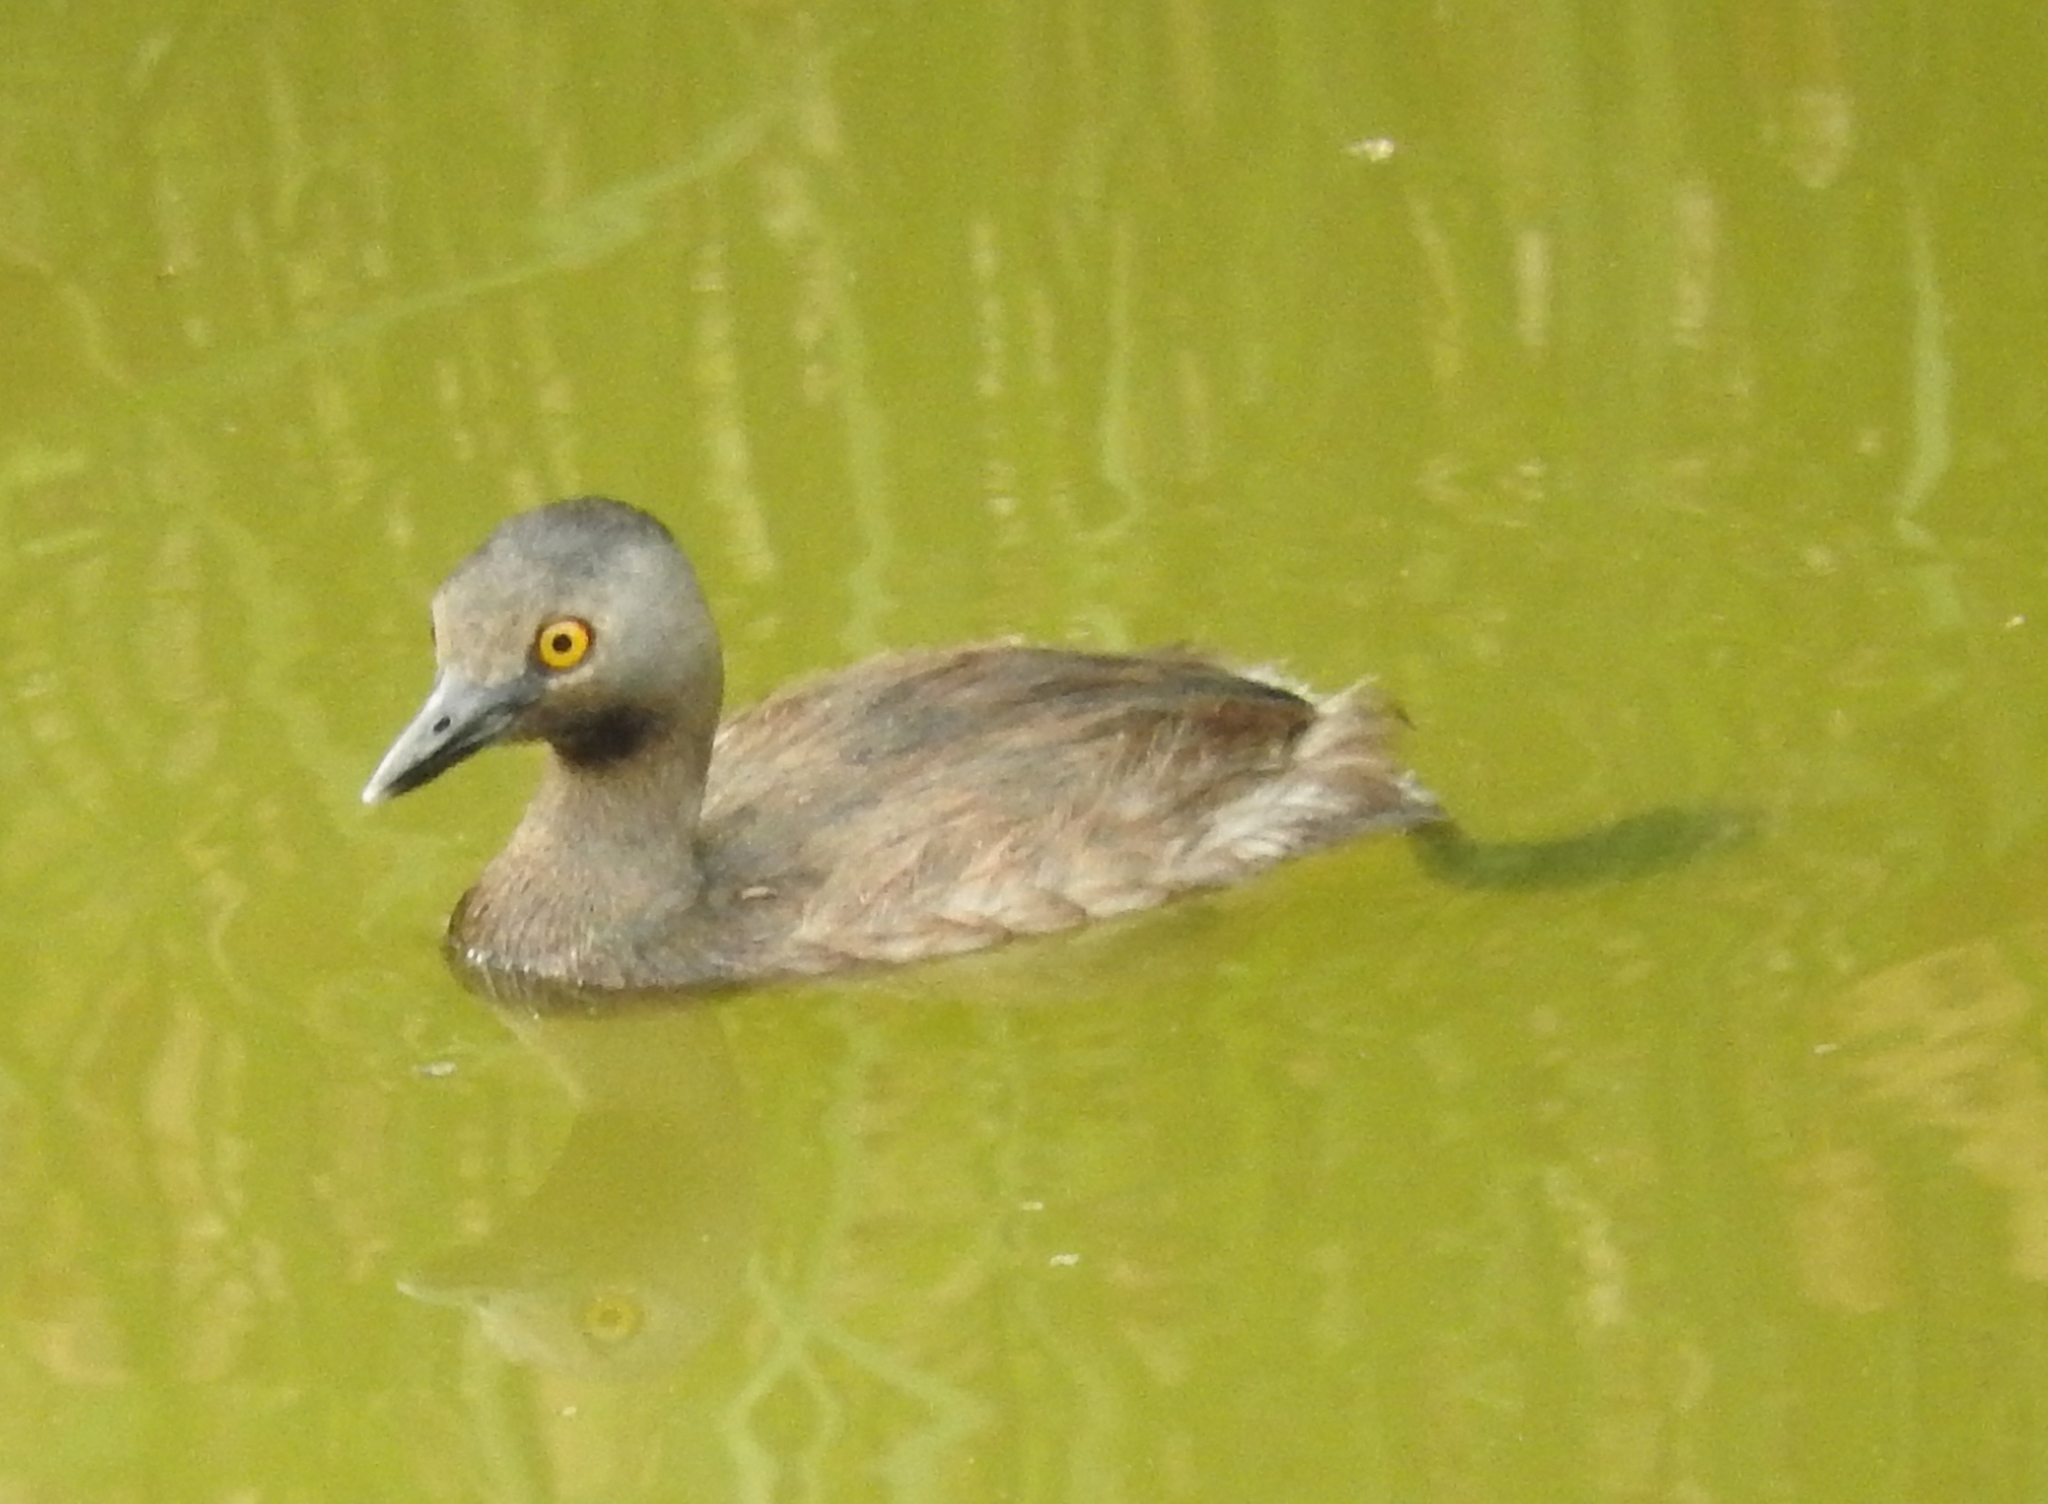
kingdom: Animalia
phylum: Chordata
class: Aves
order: Podicipediformes
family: Podicipedidae
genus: Tachybaptus
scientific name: Tachybaptus dominicus
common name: Least grebe
